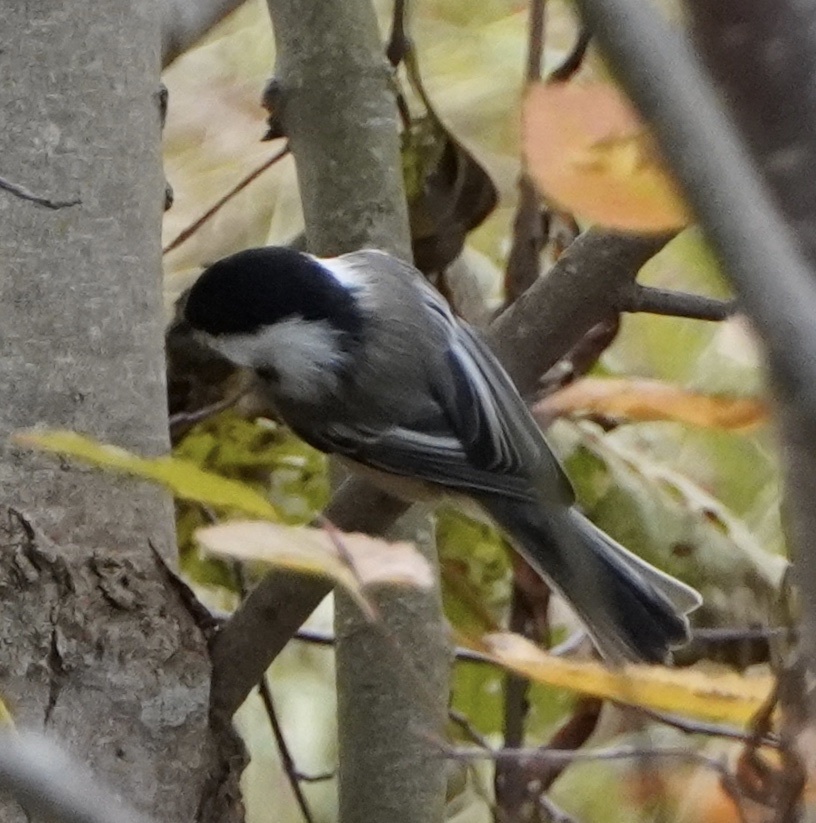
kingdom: Animalia
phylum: Chordata
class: Aves
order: Passeriformes
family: Paridae
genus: Poecile
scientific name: Poecile atricapillus
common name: Black-capped chickadee
